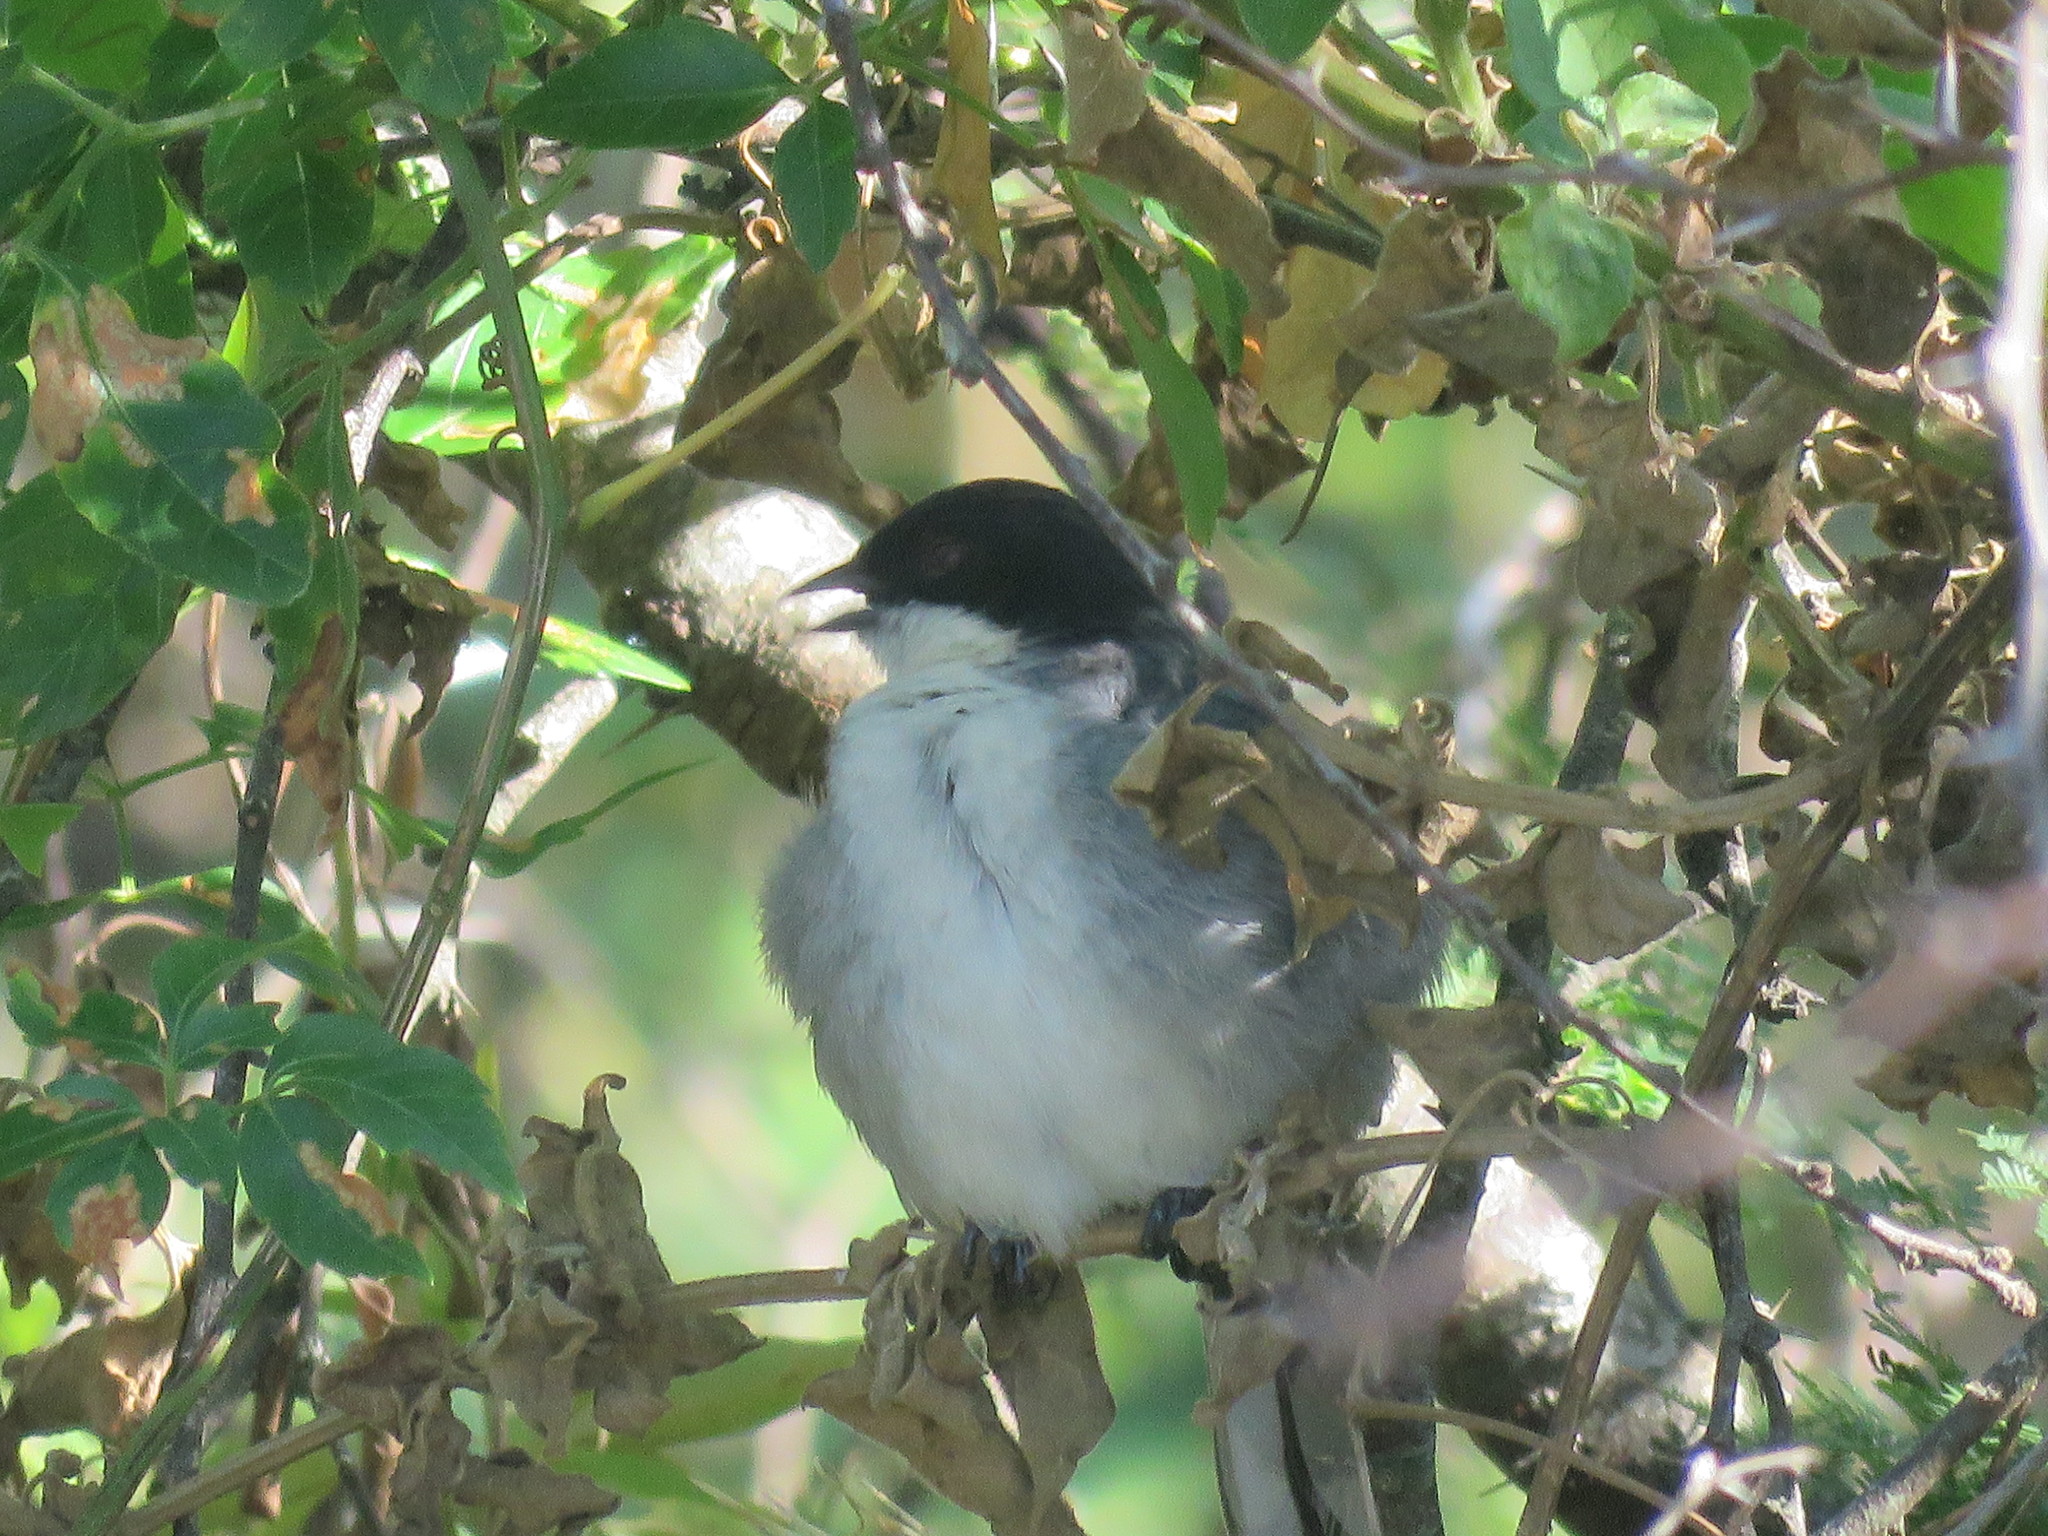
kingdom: Animalia
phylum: Chordata
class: Aves
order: Passeriformes
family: Thraupidae
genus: Microspingus
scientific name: Microspingus melanoleucus
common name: Black-capped warbling-finch
